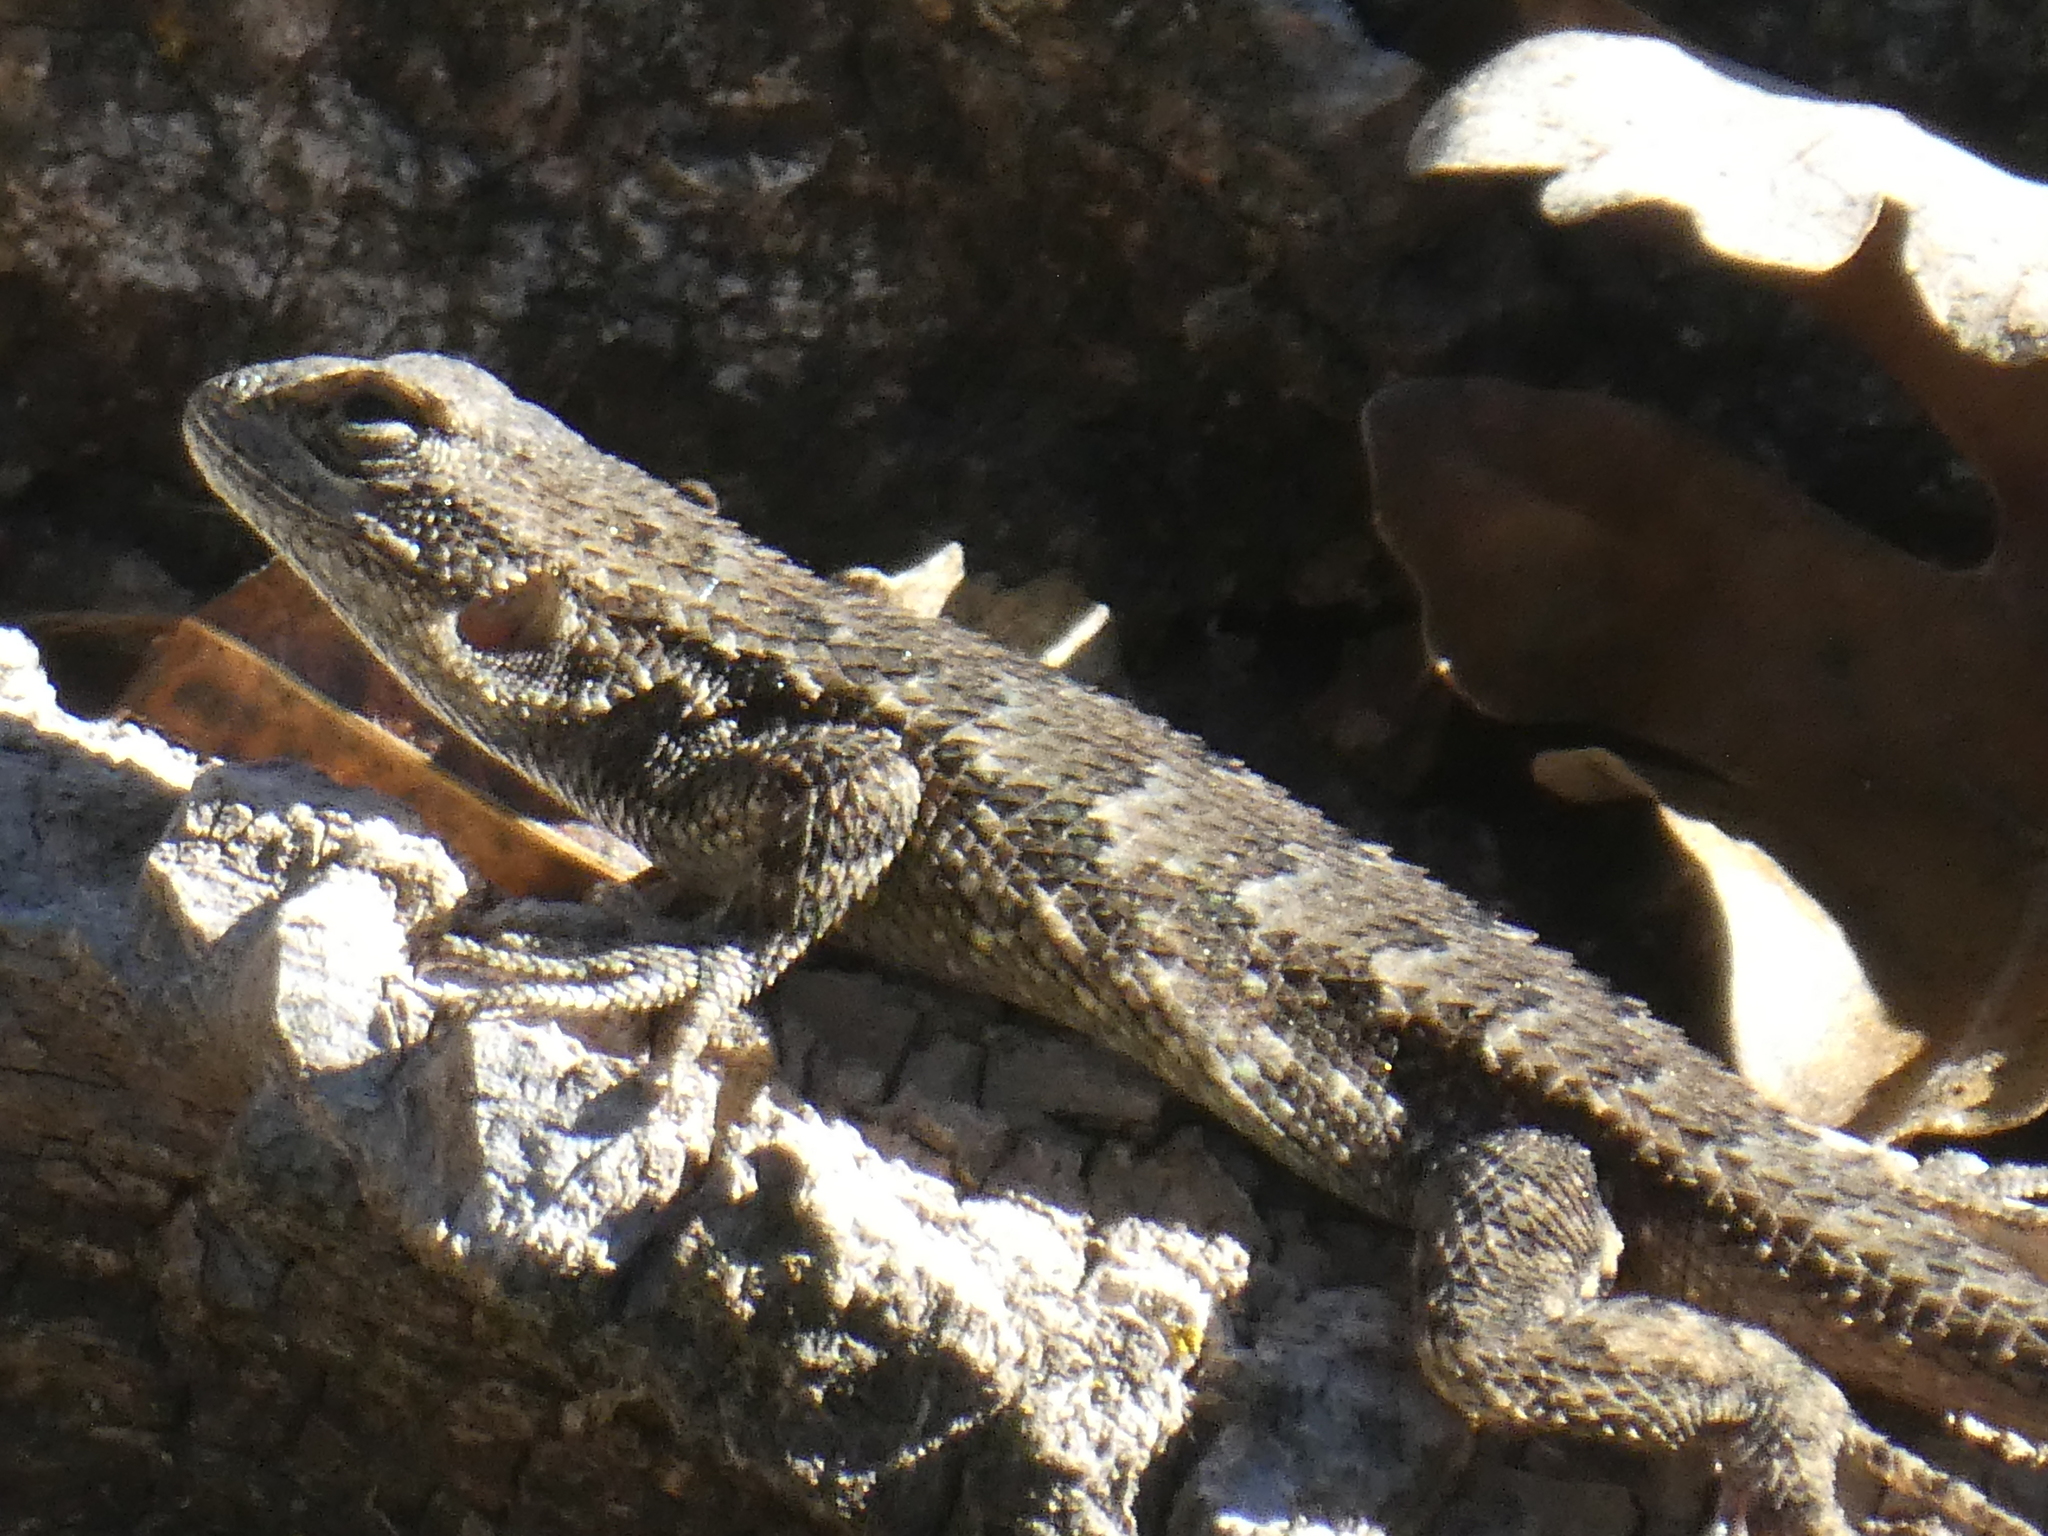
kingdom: Animalia
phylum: Chordata
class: Squamata
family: Phrynosomatidae
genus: Sceloporus
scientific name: Sceloporus occidentalis
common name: Western fence lizard
